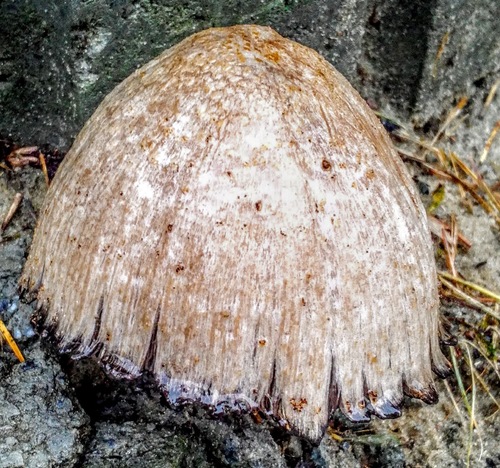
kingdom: Fungi
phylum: Basidiomycota
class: Agaricomycetes
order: Agaricales
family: Psathyrellaceae
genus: Coprinopsis
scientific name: Coprinopsis atramentaria
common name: Common ink-cap
